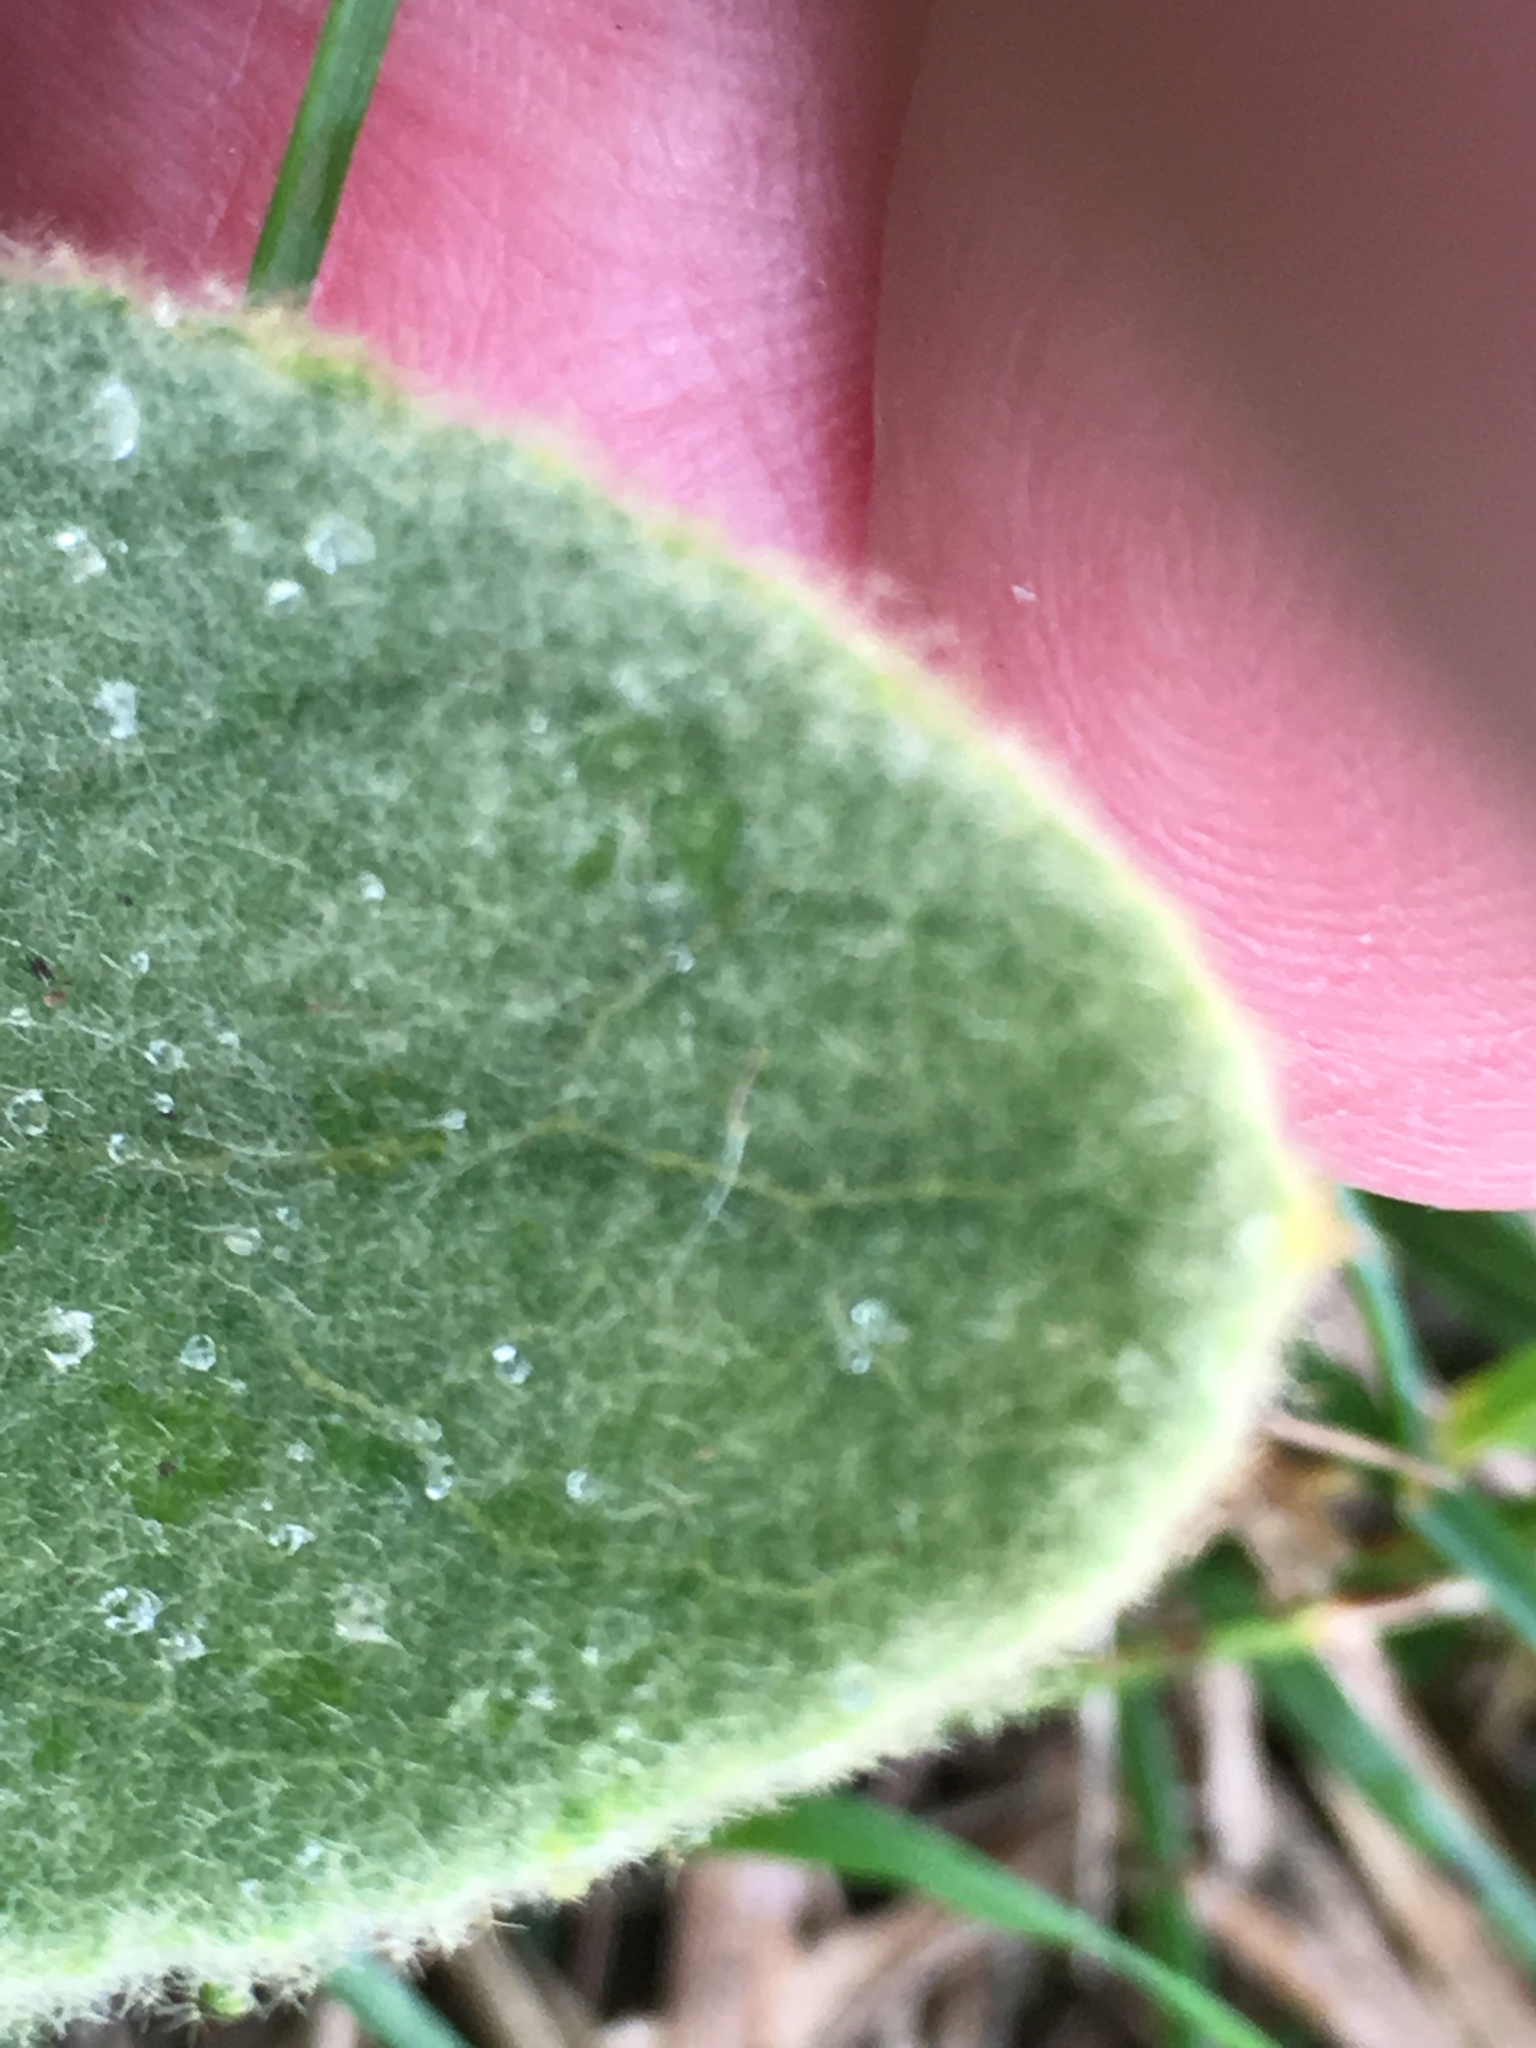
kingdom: Plantae
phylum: Tracheophyta
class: Magnoliopsida
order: Lamiales
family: Scrophulariaceae
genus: Verbascum
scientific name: Verbascum thapsus
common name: Common mullein
